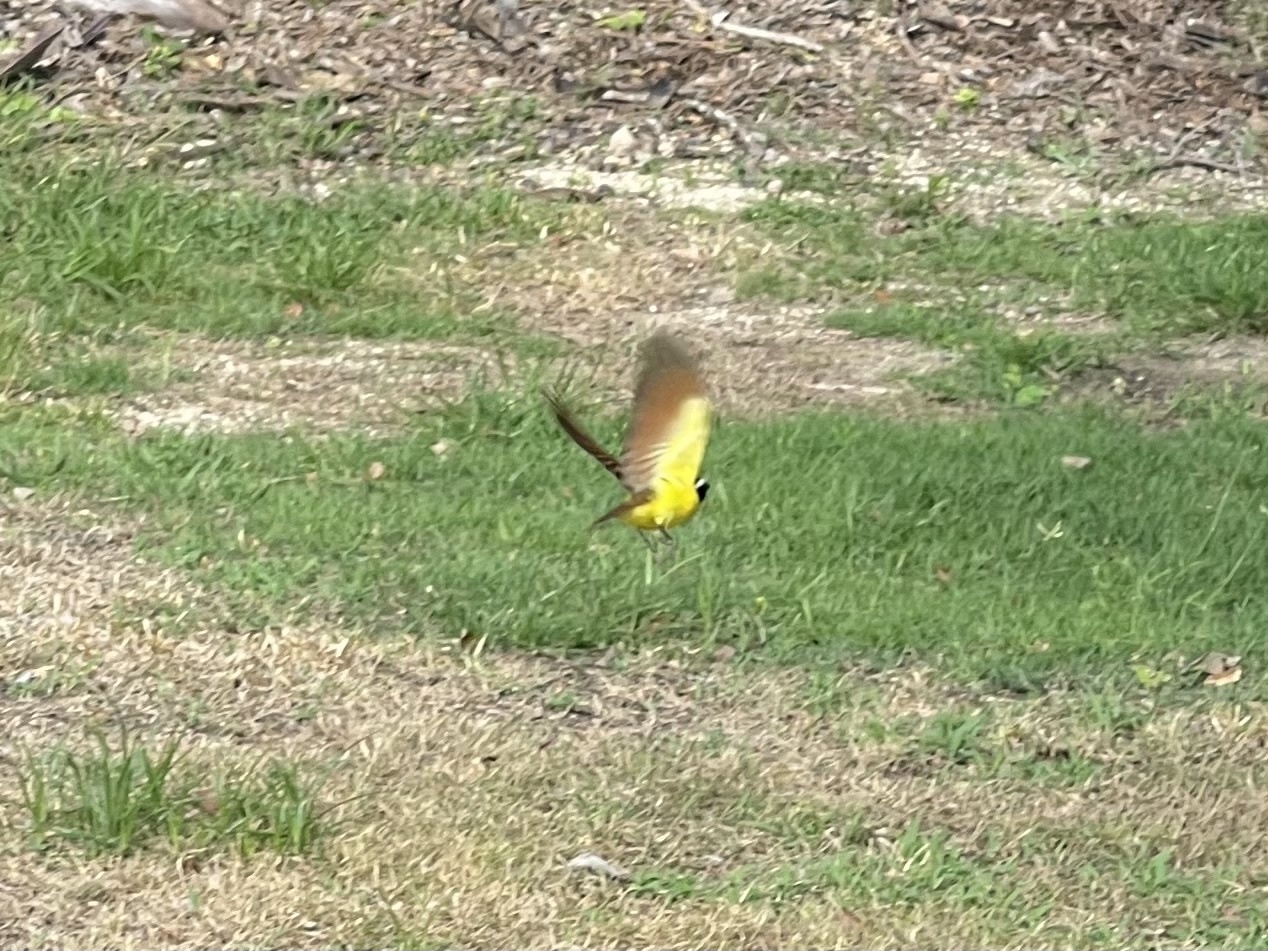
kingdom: Animalia
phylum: Chordata
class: Aves
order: Passeriformes
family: Tyrannidae
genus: Pitangus
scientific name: Pitangus sulphuratus
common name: Great kiskadee
